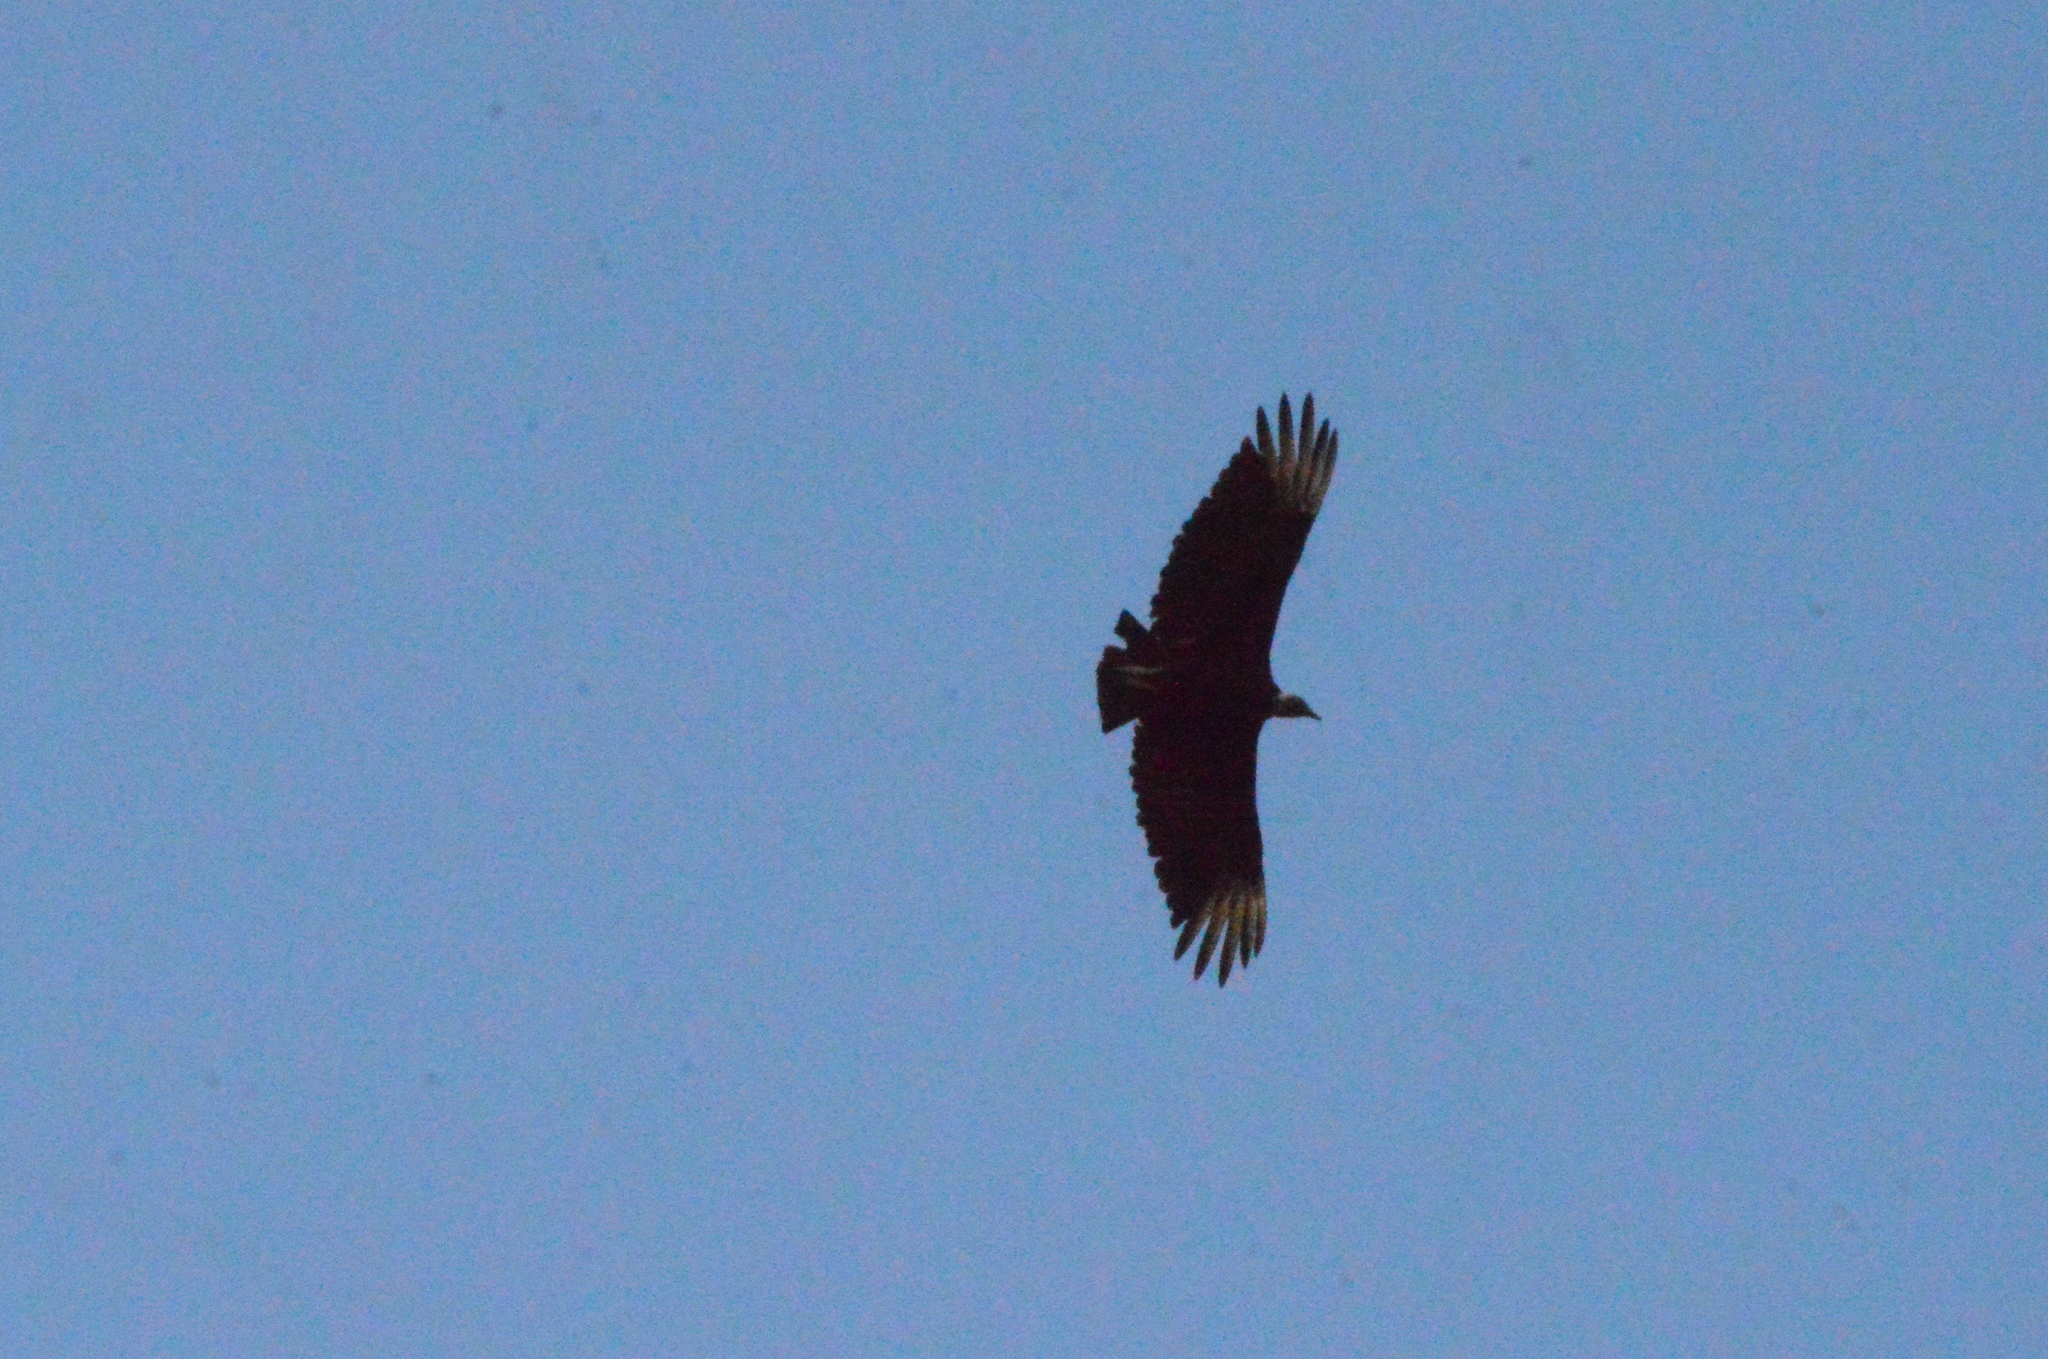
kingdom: Animalia
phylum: Chordata
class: Aves
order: Accipitriformes
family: Cathartidae
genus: Coragyps
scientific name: Coragyps atratus
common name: Black vulture
